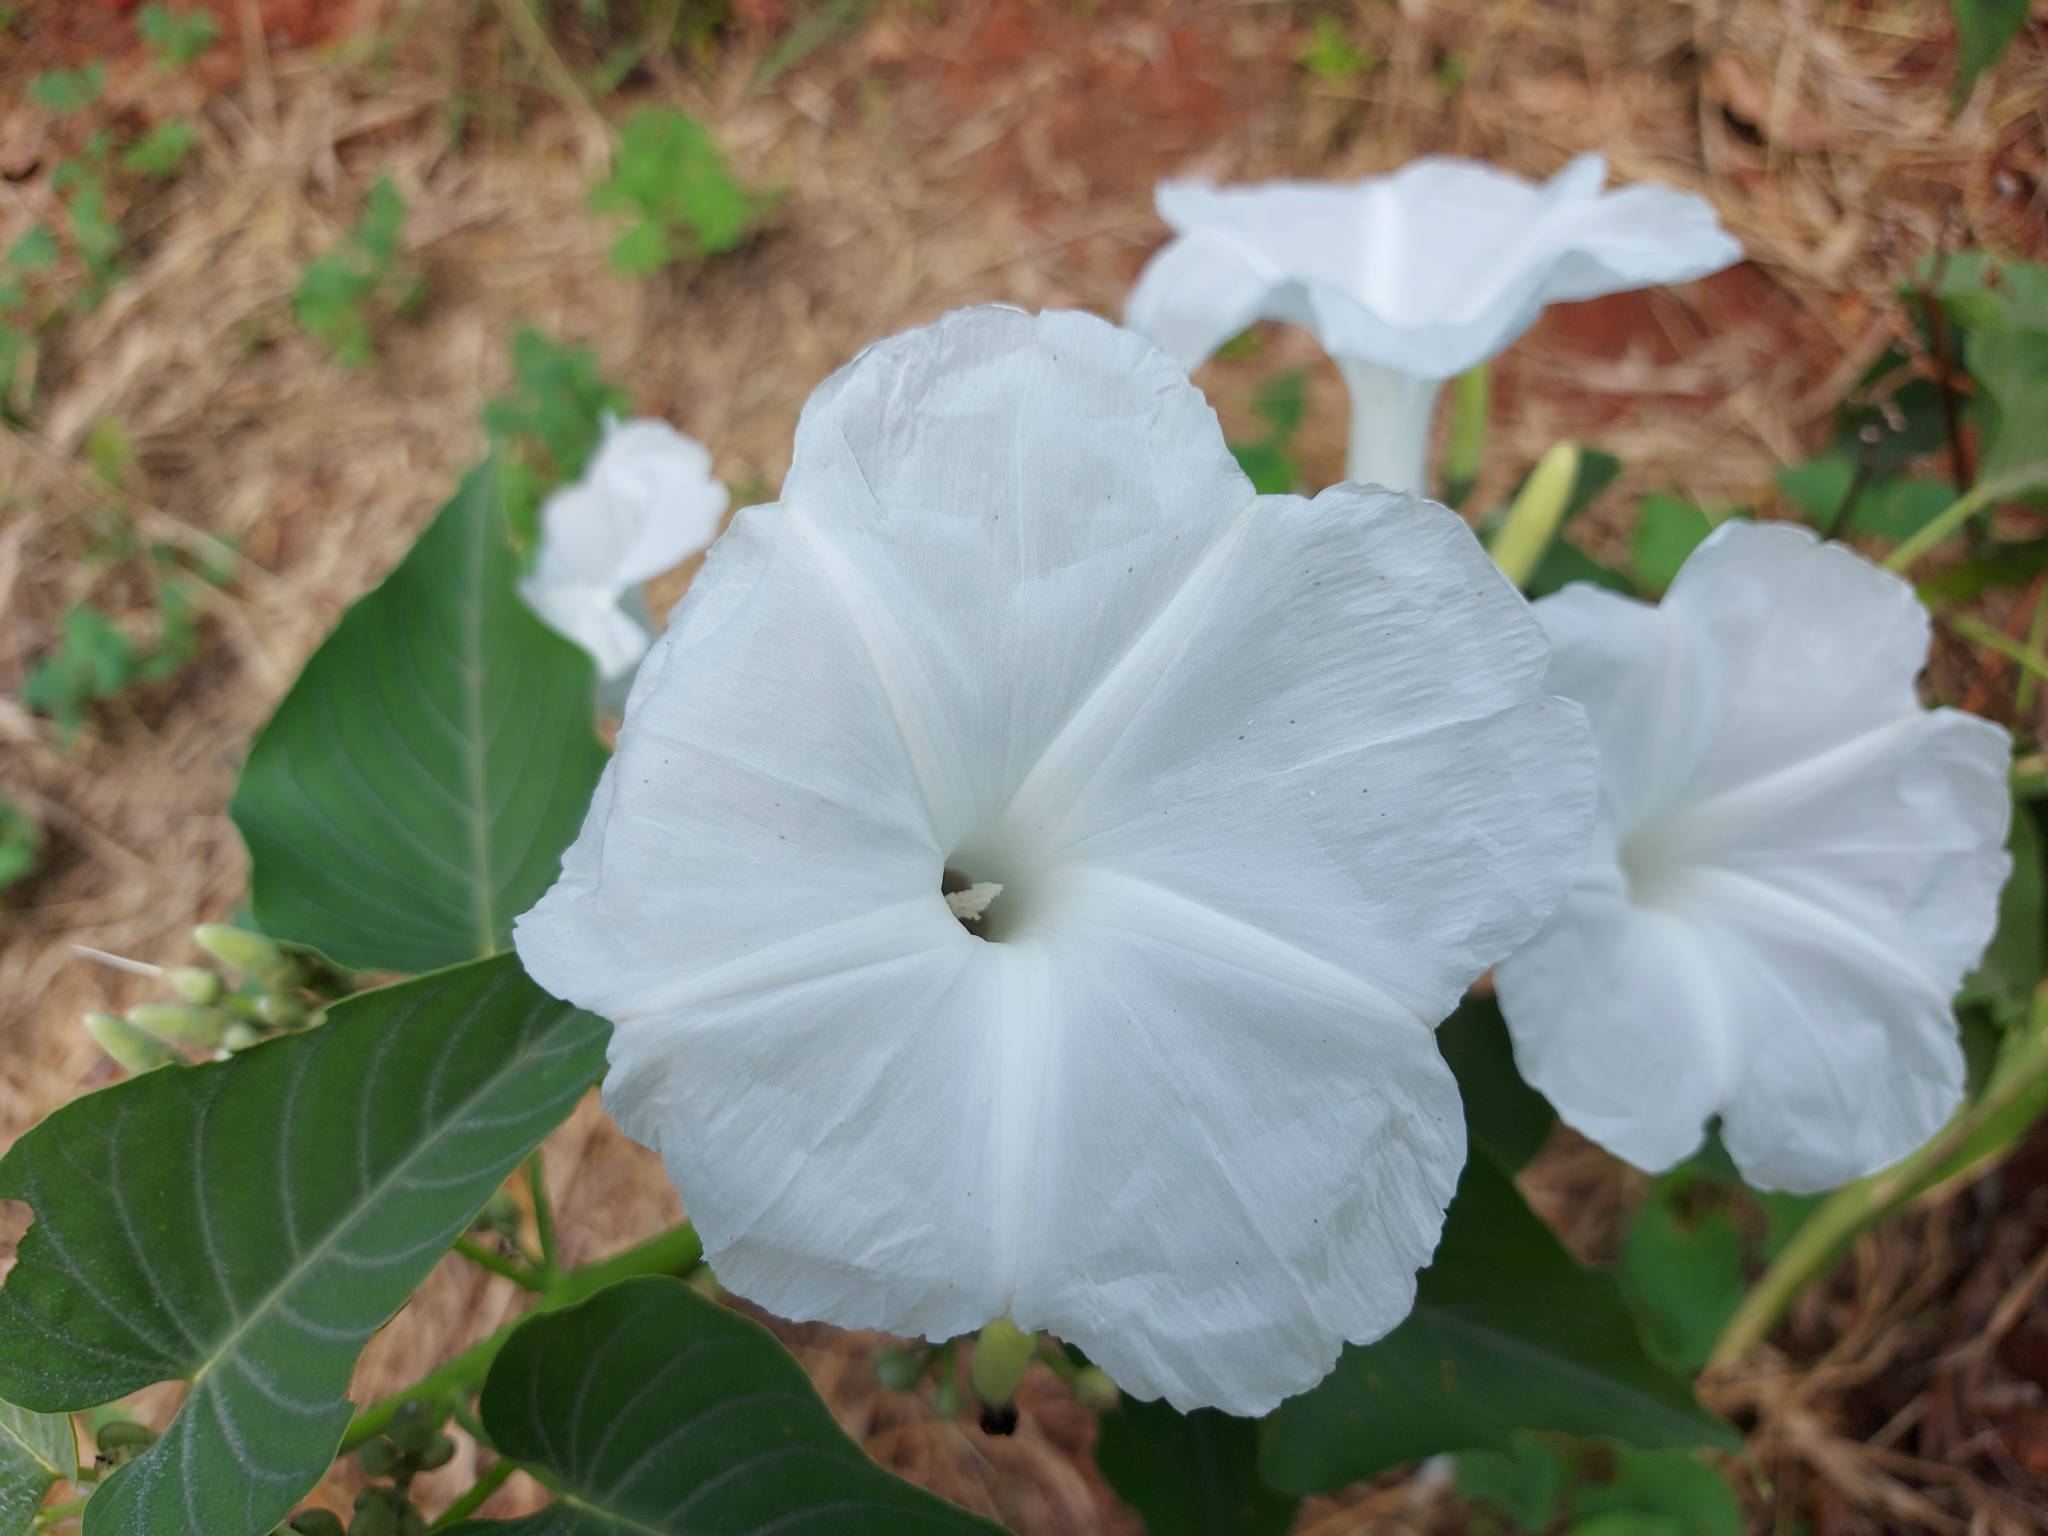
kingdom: Plantae
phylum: Tracheophyta
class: Magnoliopsida
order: Solanales
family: Convolvulaceae
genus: Ipomoea
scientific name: Ipomoea carnea
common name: Morning-glory
